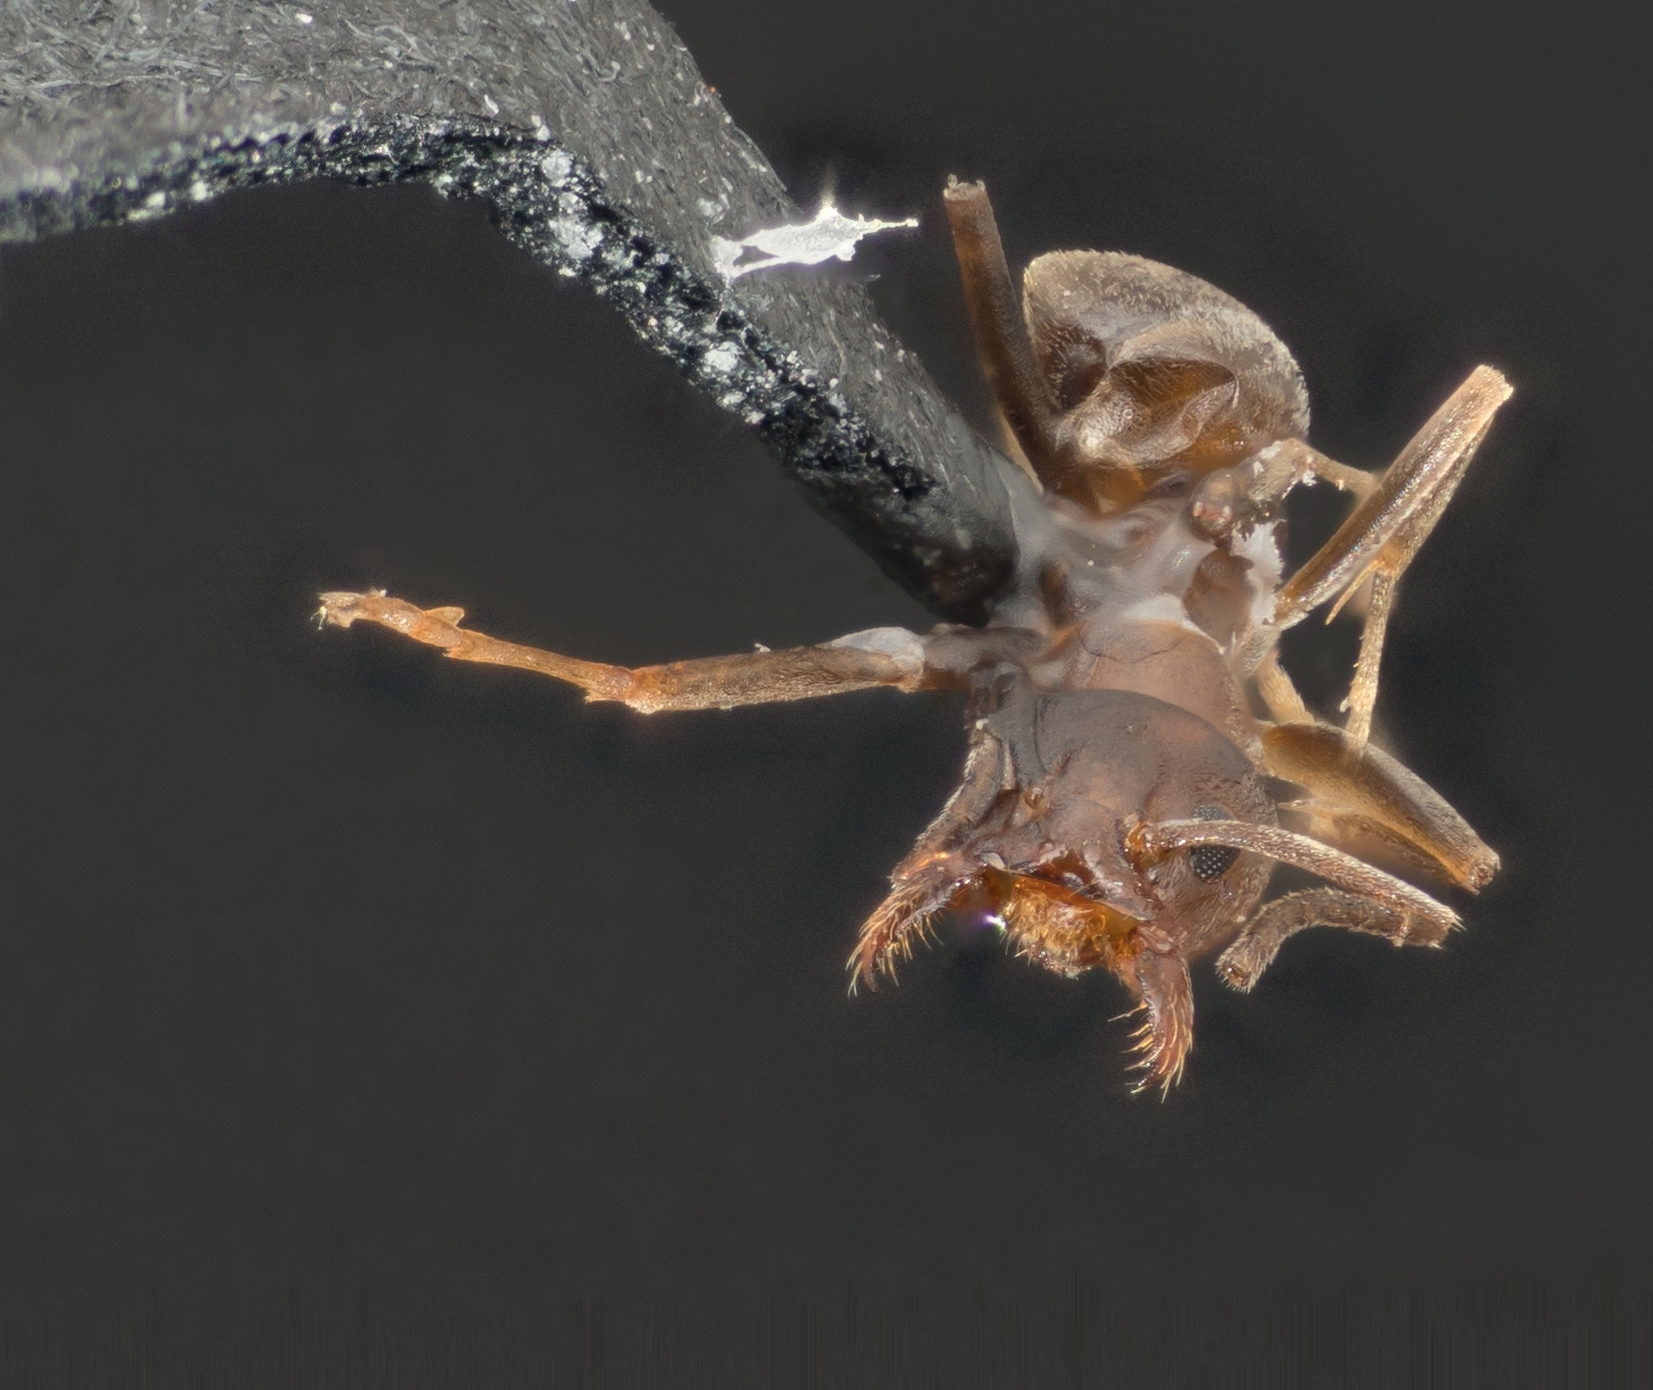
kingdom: Animalia
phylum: Arthropoda
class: Insecta
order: Hymenoptera
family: Formicidae
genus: Linepithema
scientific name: Linepithema humile
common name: Argentine ant
